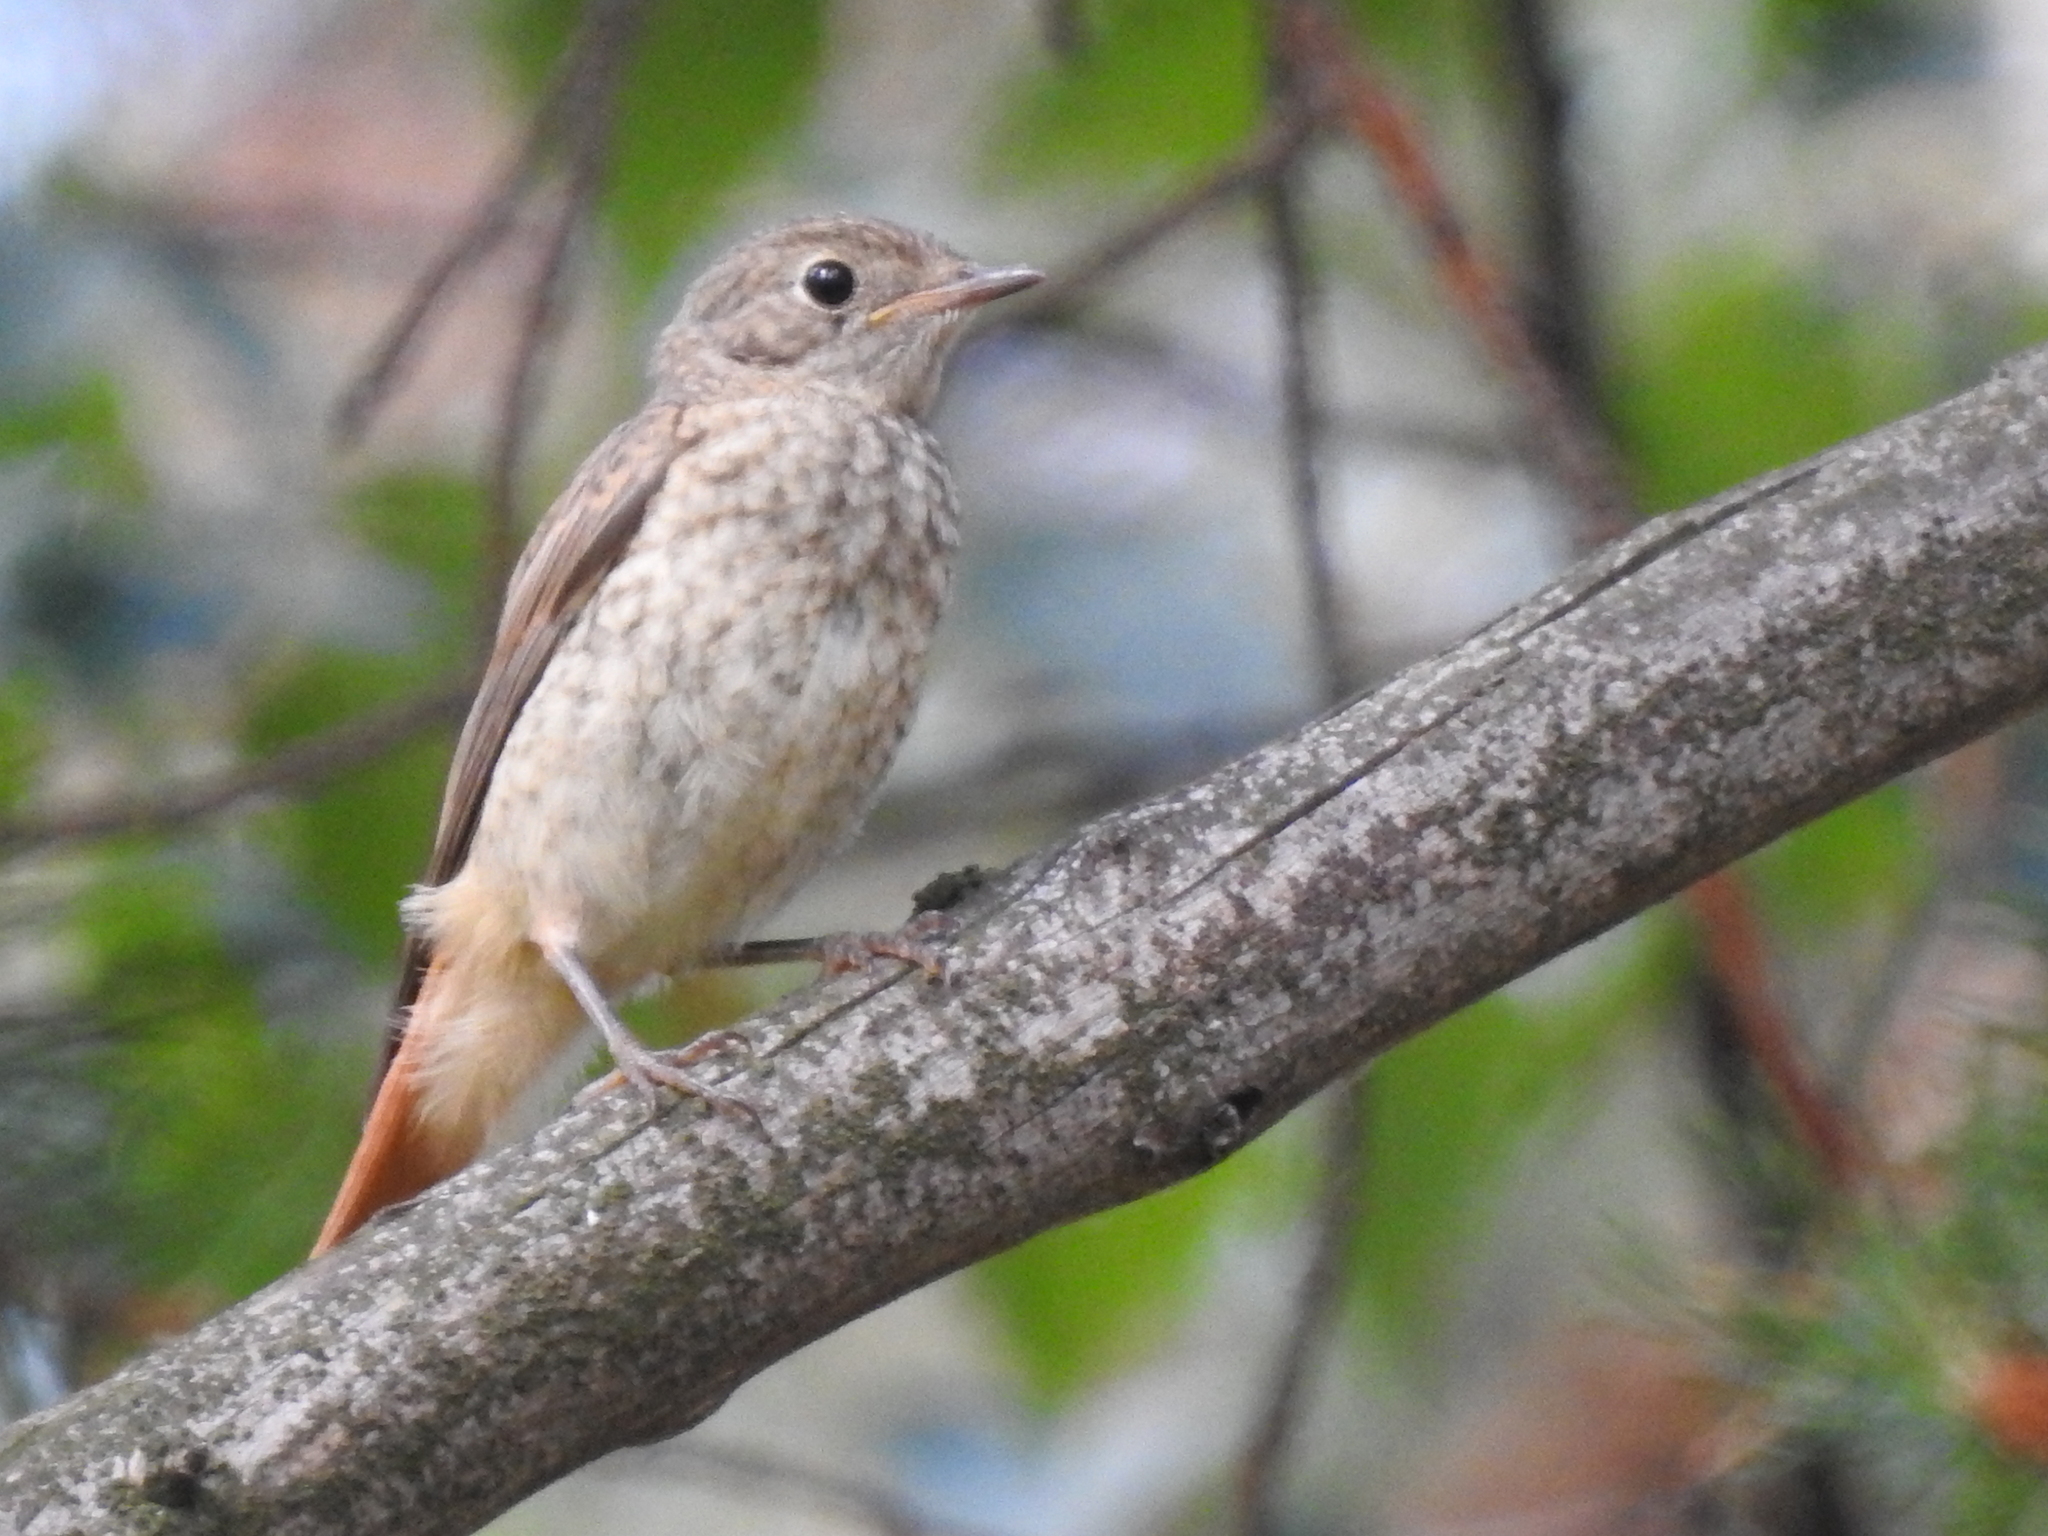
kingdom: Animalia
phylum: Chordata
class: Aves
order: Passeriformes
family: Muscicapidae
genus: Phoenicurus
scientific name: Phoenicurus phoenicurus
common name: Common redstart
